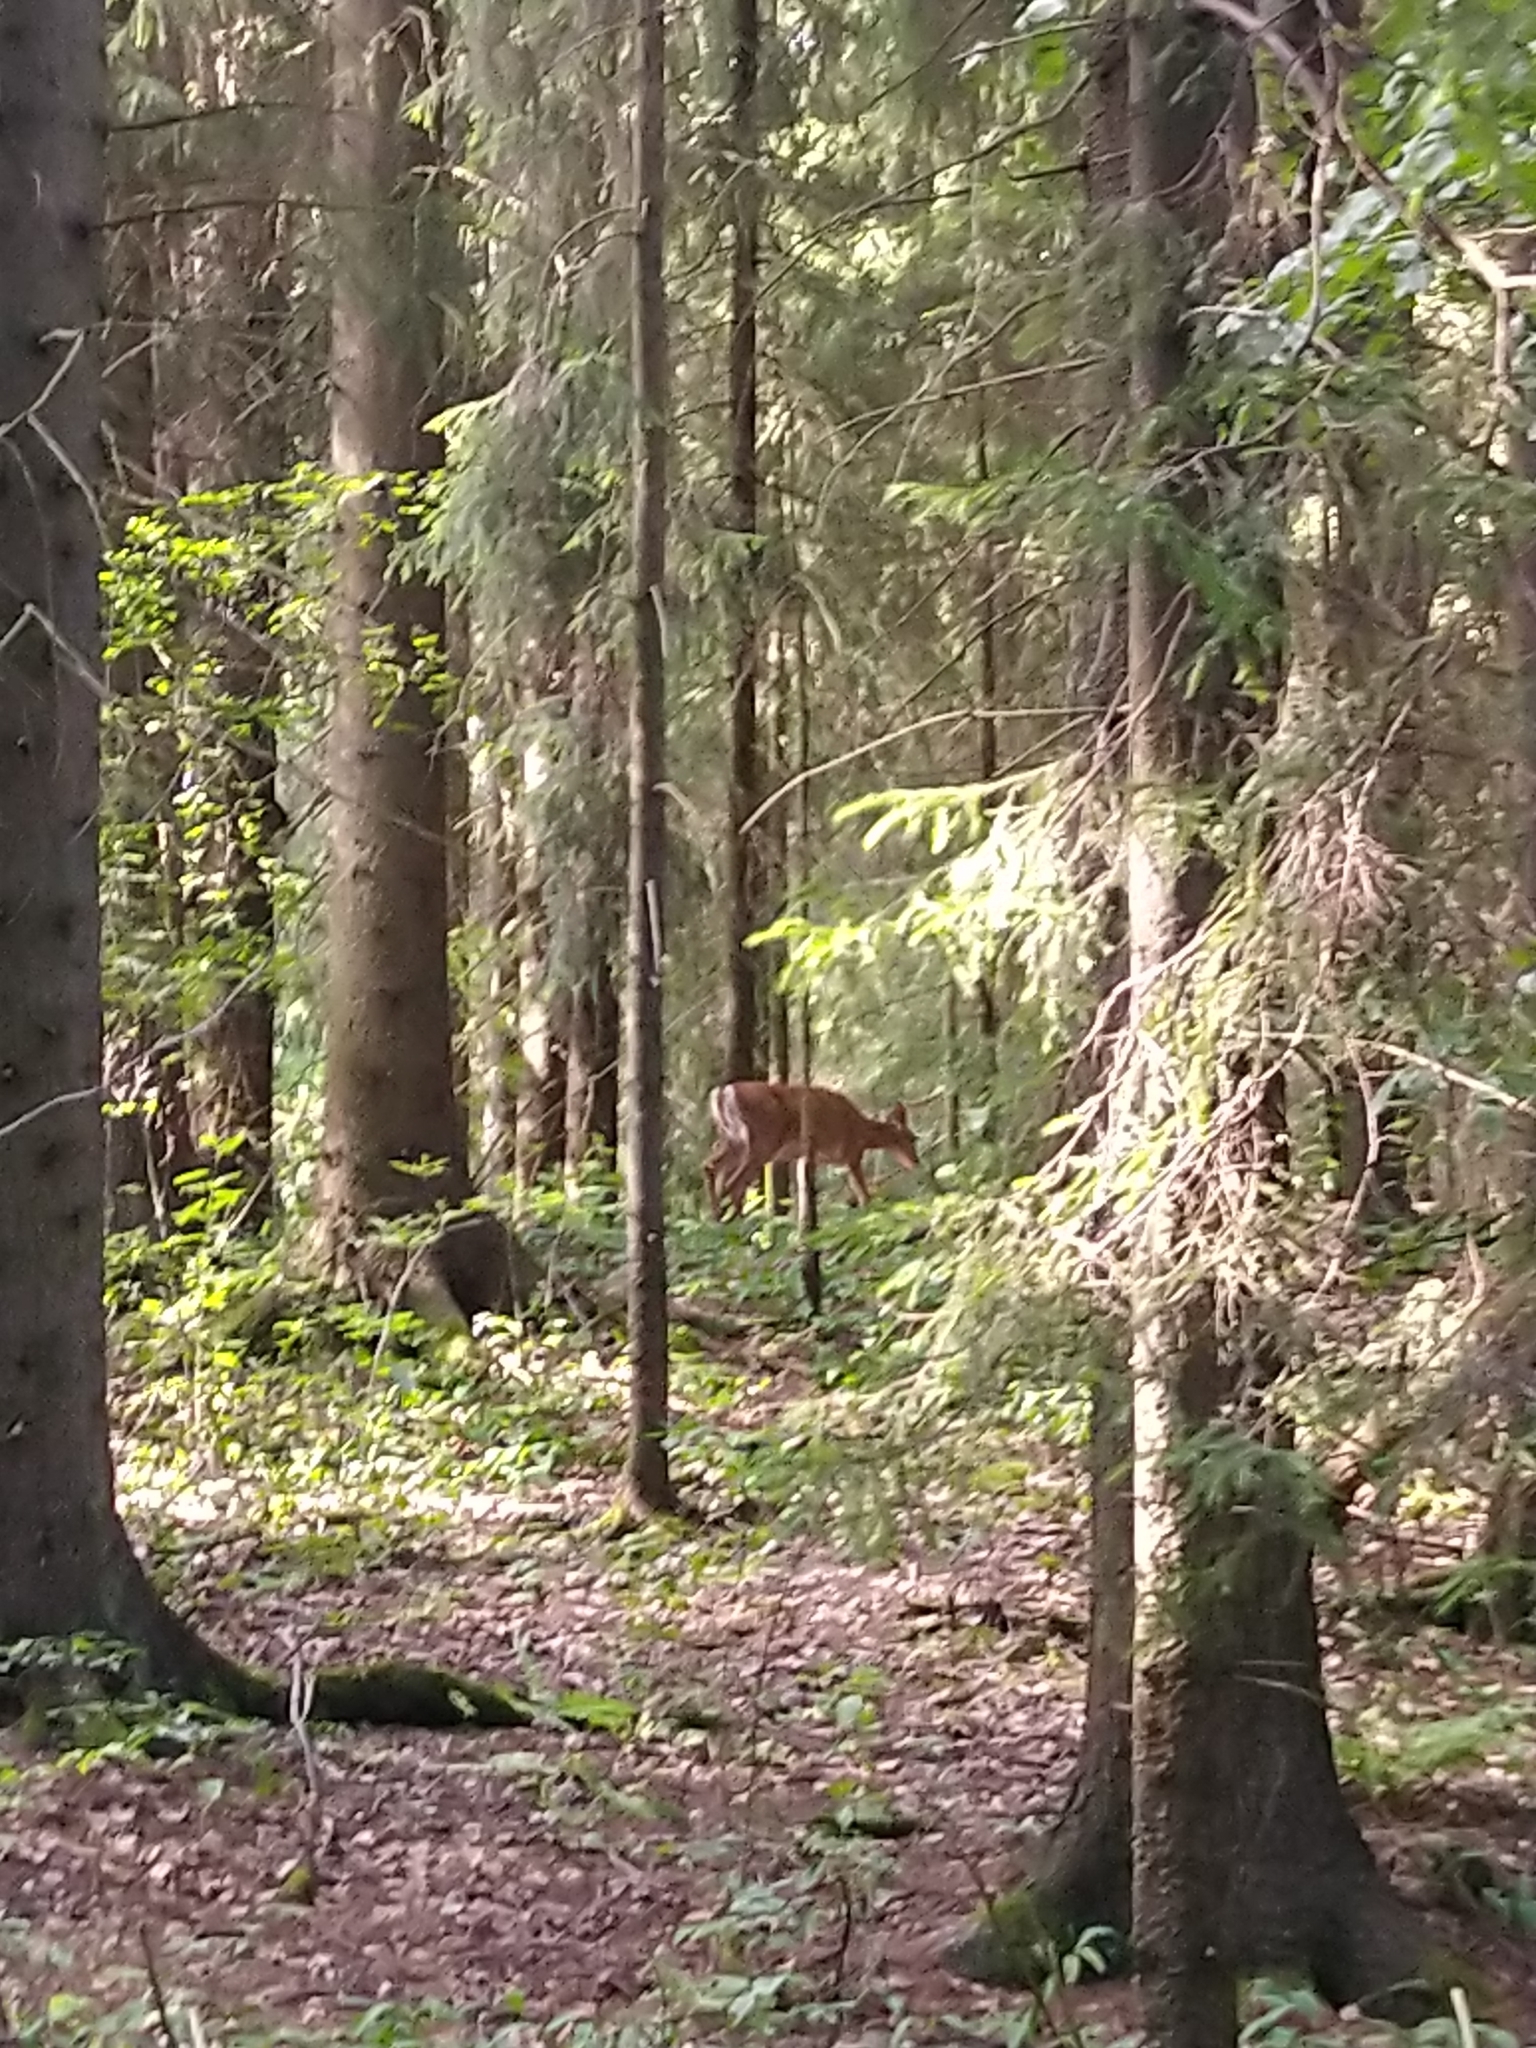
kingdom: Animalia
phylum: Chordata
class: Mammalia
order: Artiodactyla
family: Cervidae
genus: Odocoileus
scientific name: Odocoileus virginianus
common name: White-tailed deer
